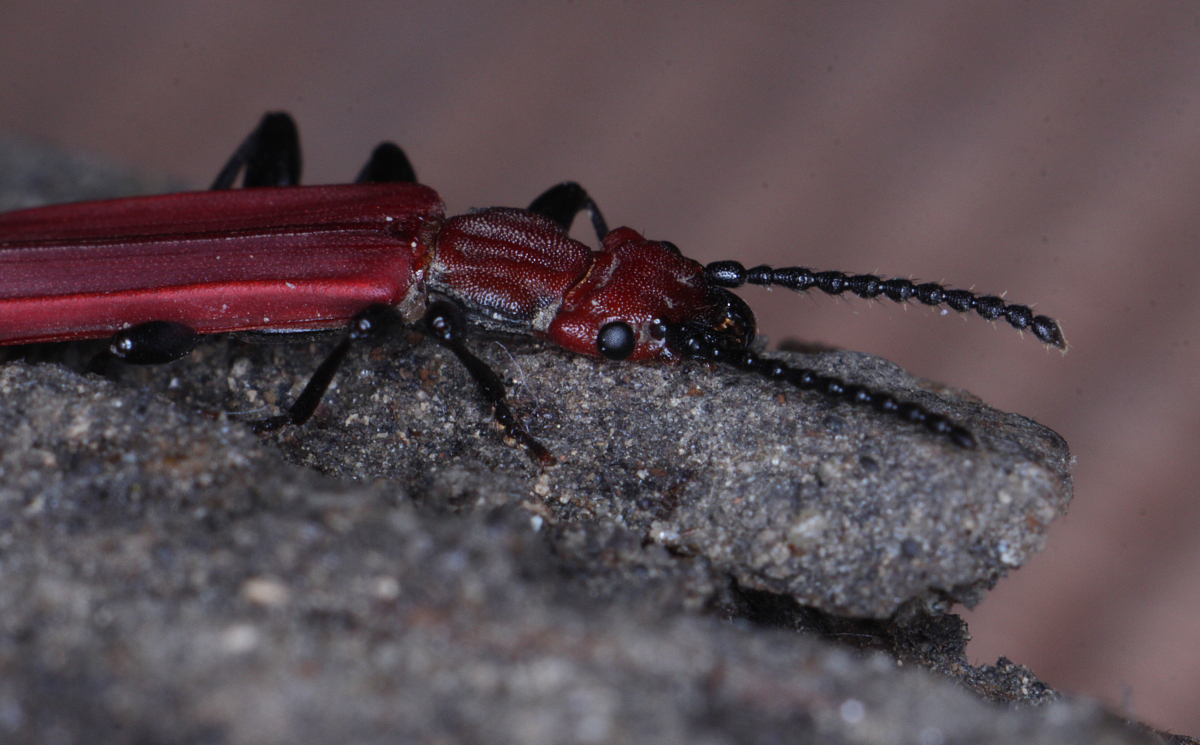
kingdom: Animalia
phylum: Arthropoda
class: Insecta
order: Coleoptera
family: Cucujidae
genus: Cucujus
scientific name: Cucujus cinnaberinus
